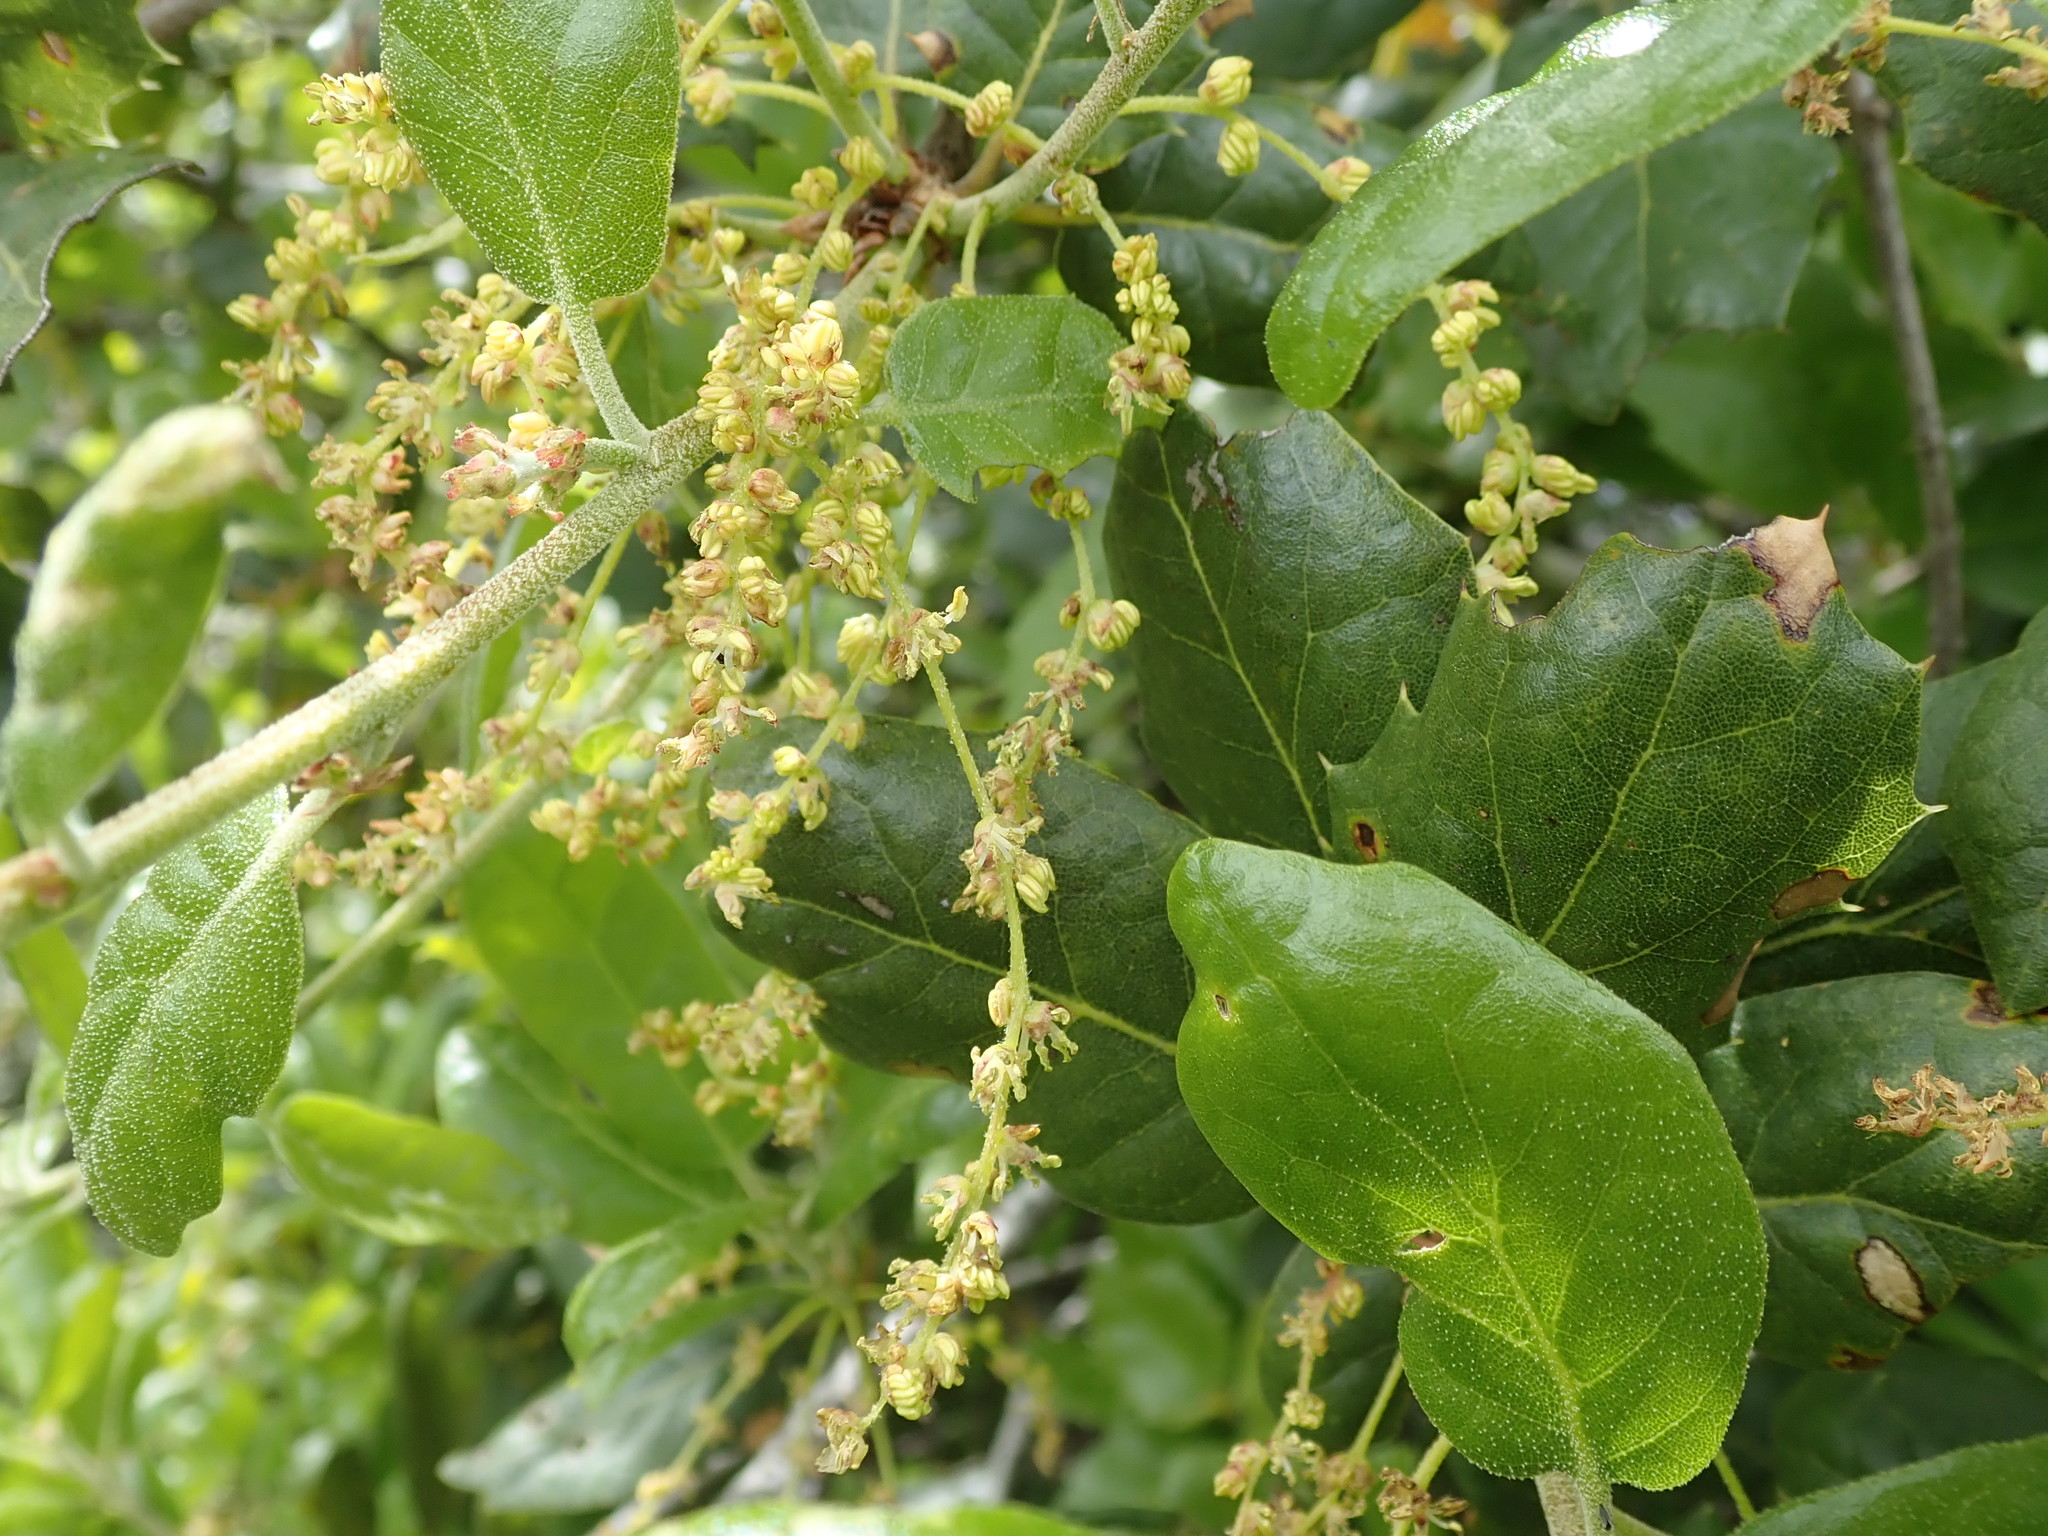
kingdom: Plantae
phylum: Tracheophyta
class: Magnoliopsida
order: Fagales
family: Fagaceae
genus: Quercus
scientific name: Quercus agrifolia
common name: California live oak
